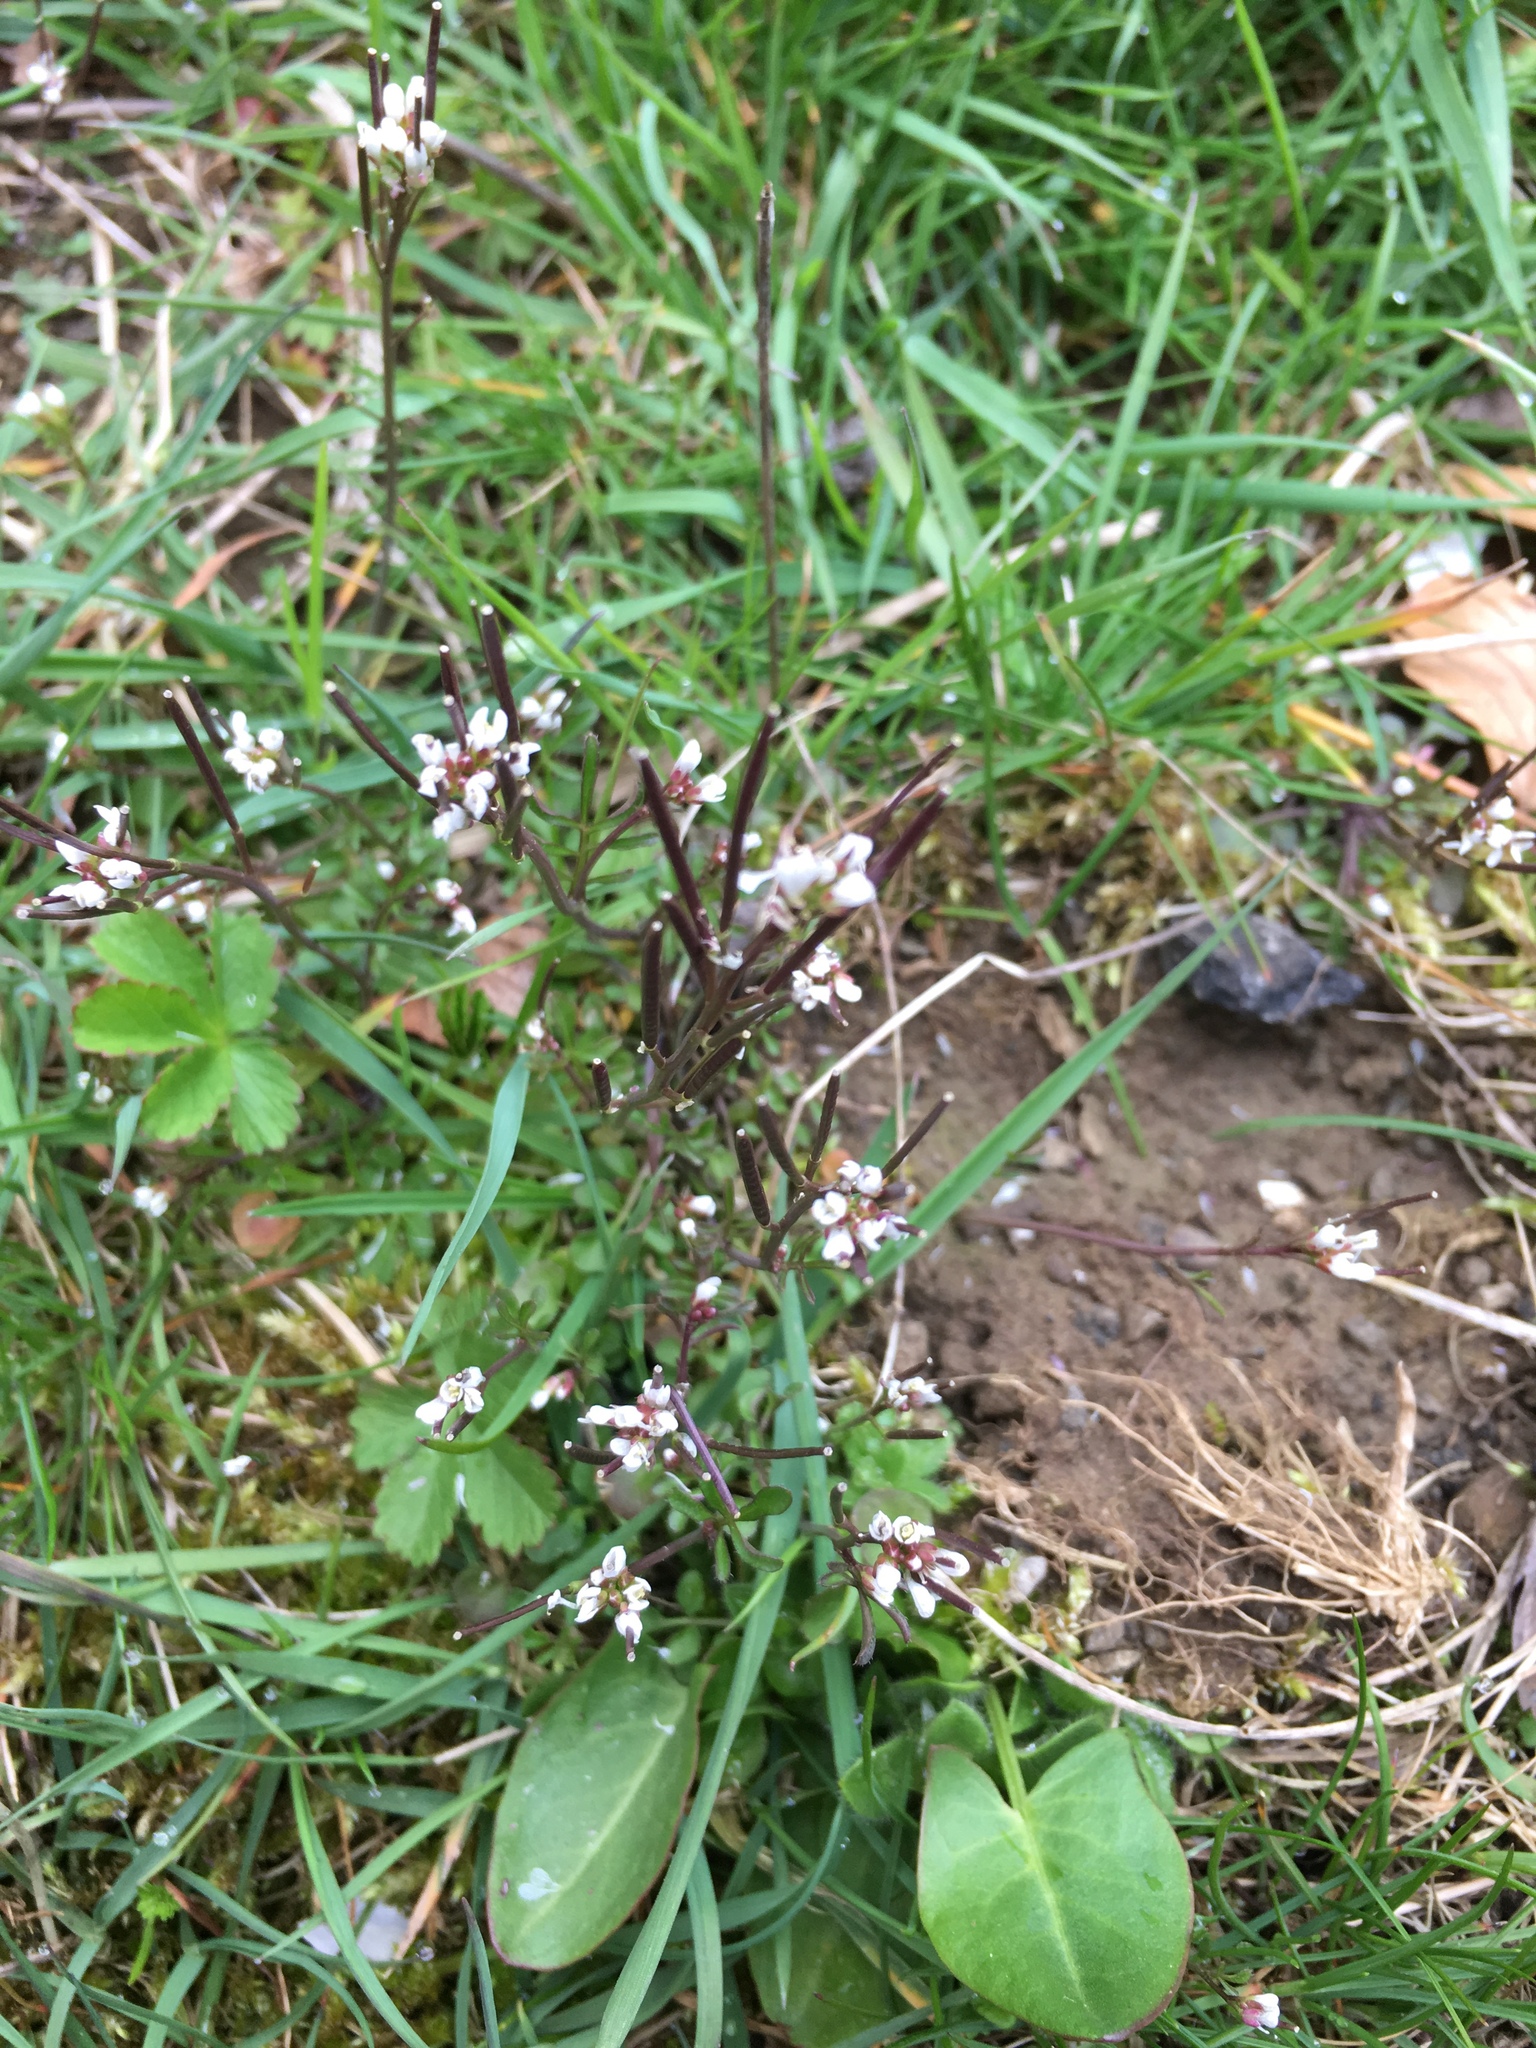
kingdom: Plantae
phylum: Tracheophyta
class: Magnoliopsida
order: Brassicales
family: Brassicaceae
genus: Cardamine
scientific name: Cardamine hirsuta
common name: Hairy bittercress
